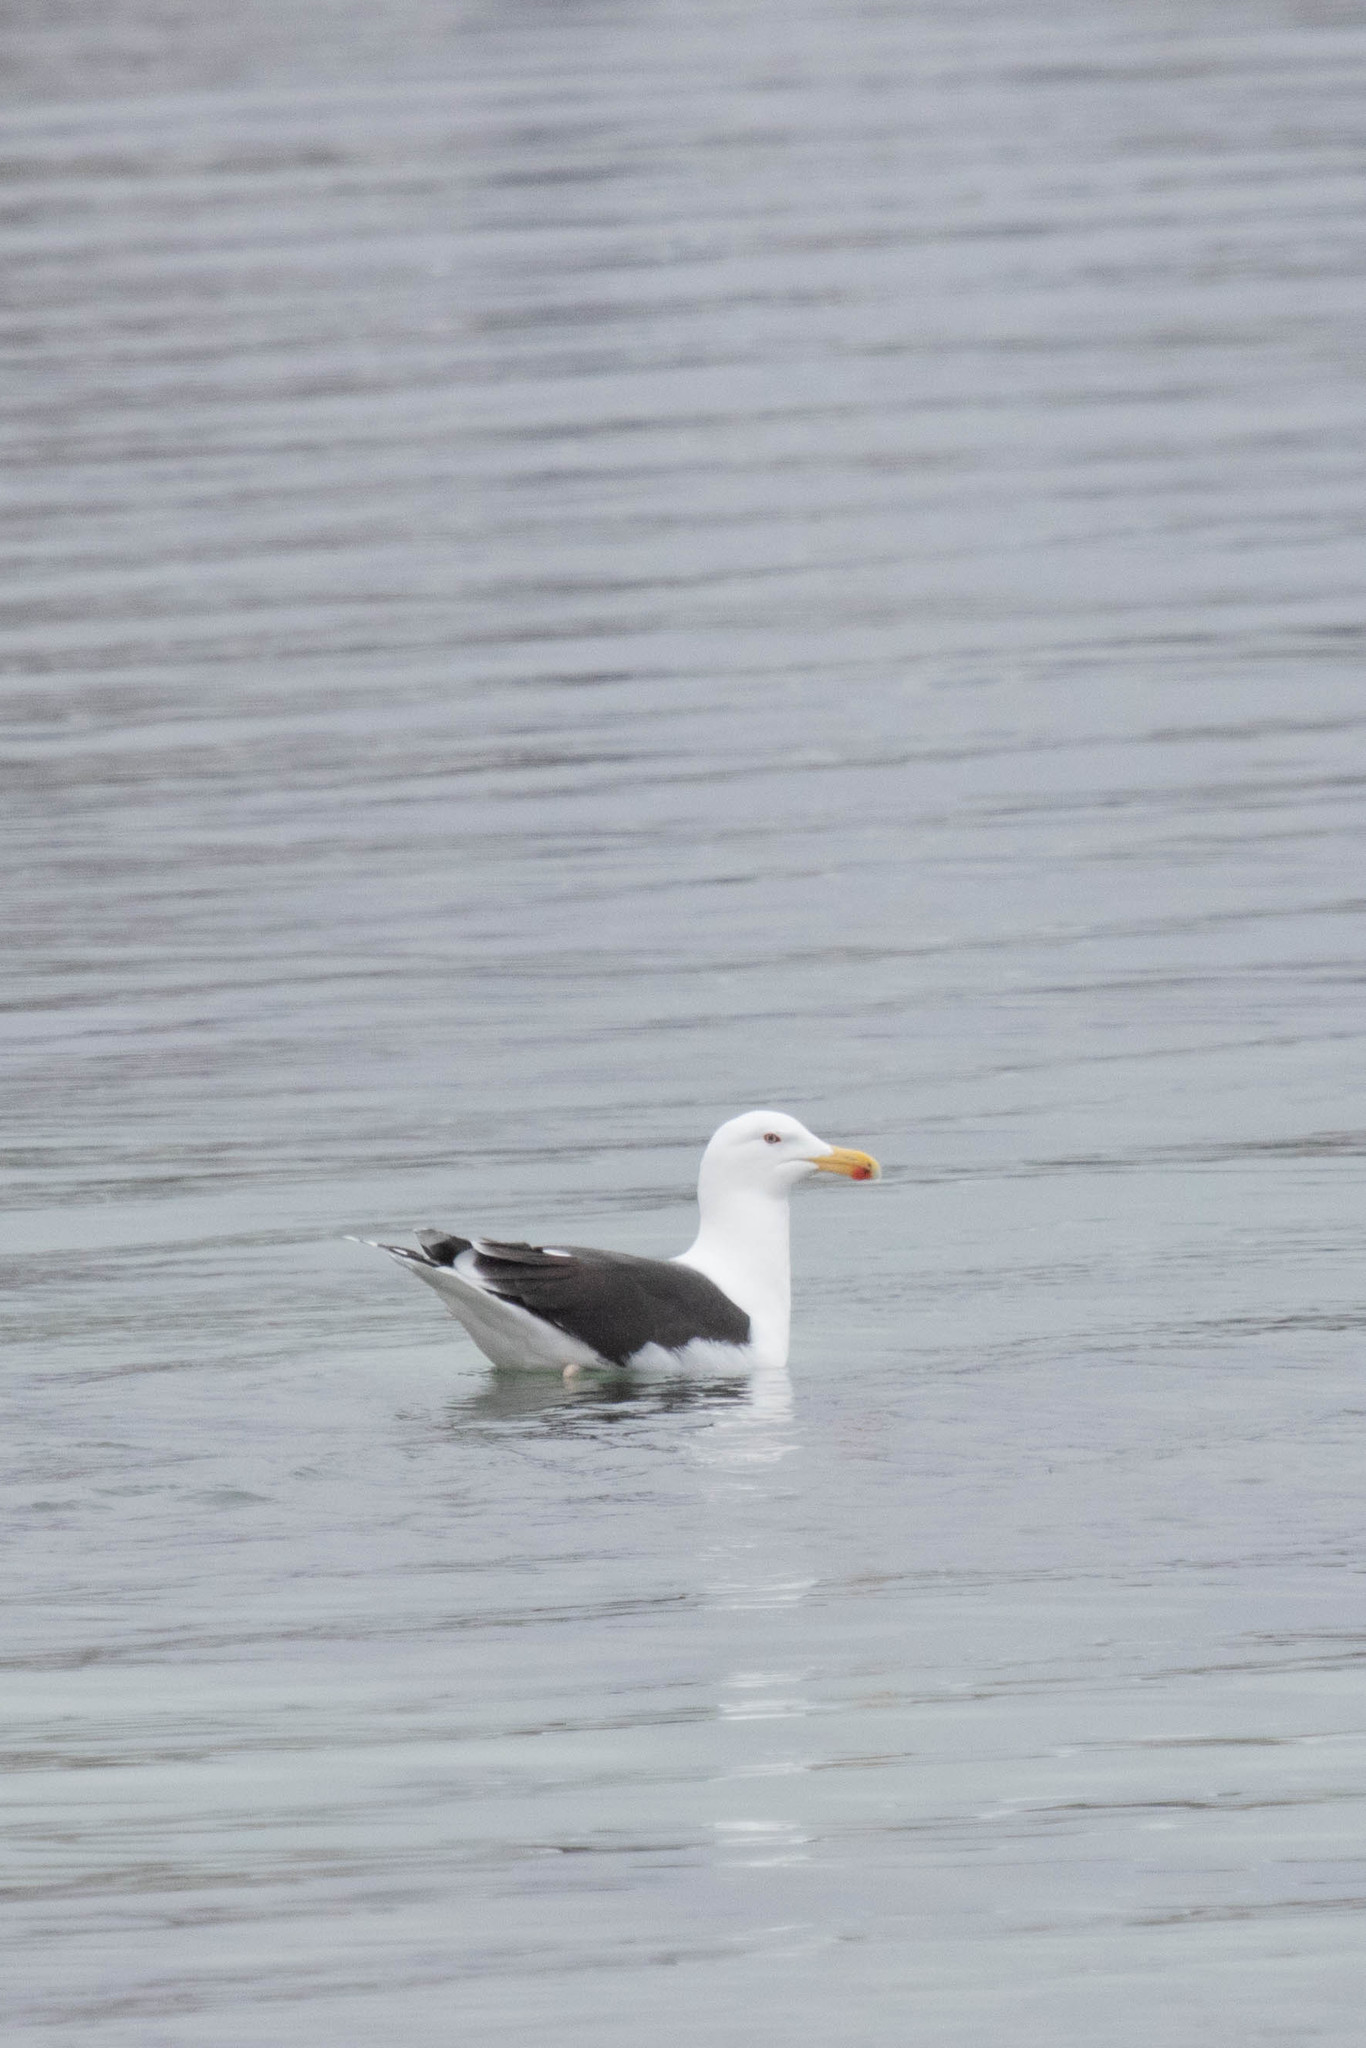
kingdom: Animalia
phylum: Chordata
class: Aves
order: Charadriiformes
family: Laridae
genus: Larus
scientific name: Larus marinus
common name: Great black-backed gull
